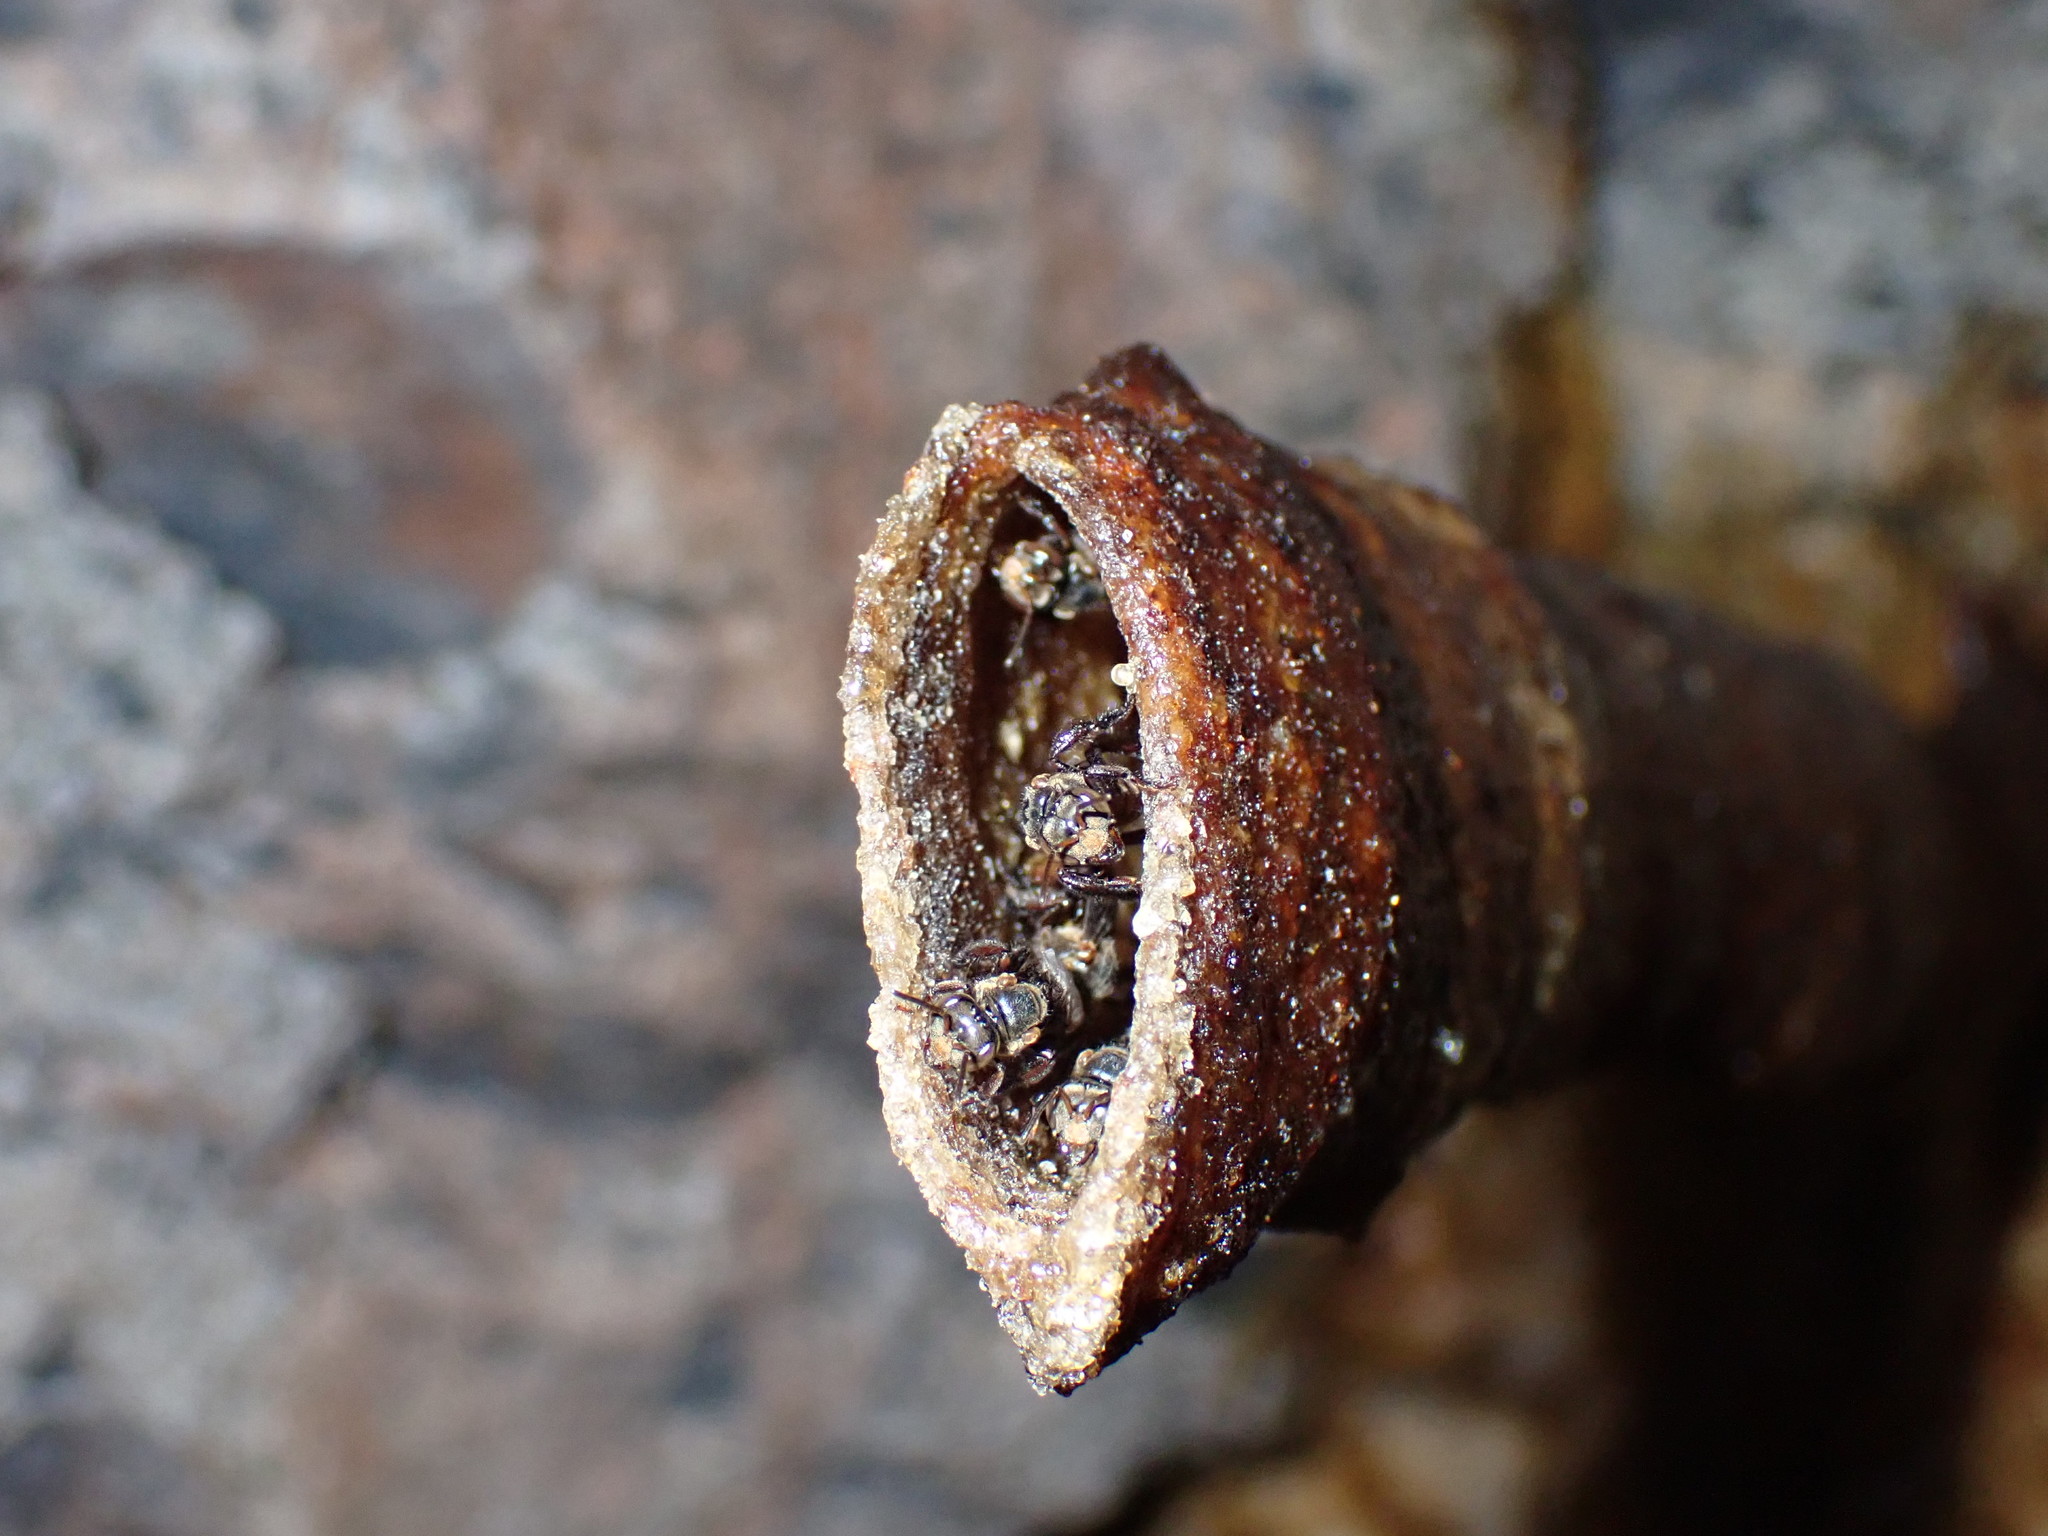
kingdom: Animalia
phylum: Arthropoda
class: Insecta
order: Hymenoptera
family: Apidae
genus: Homotrigona
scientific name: Homotrigona apicalis
